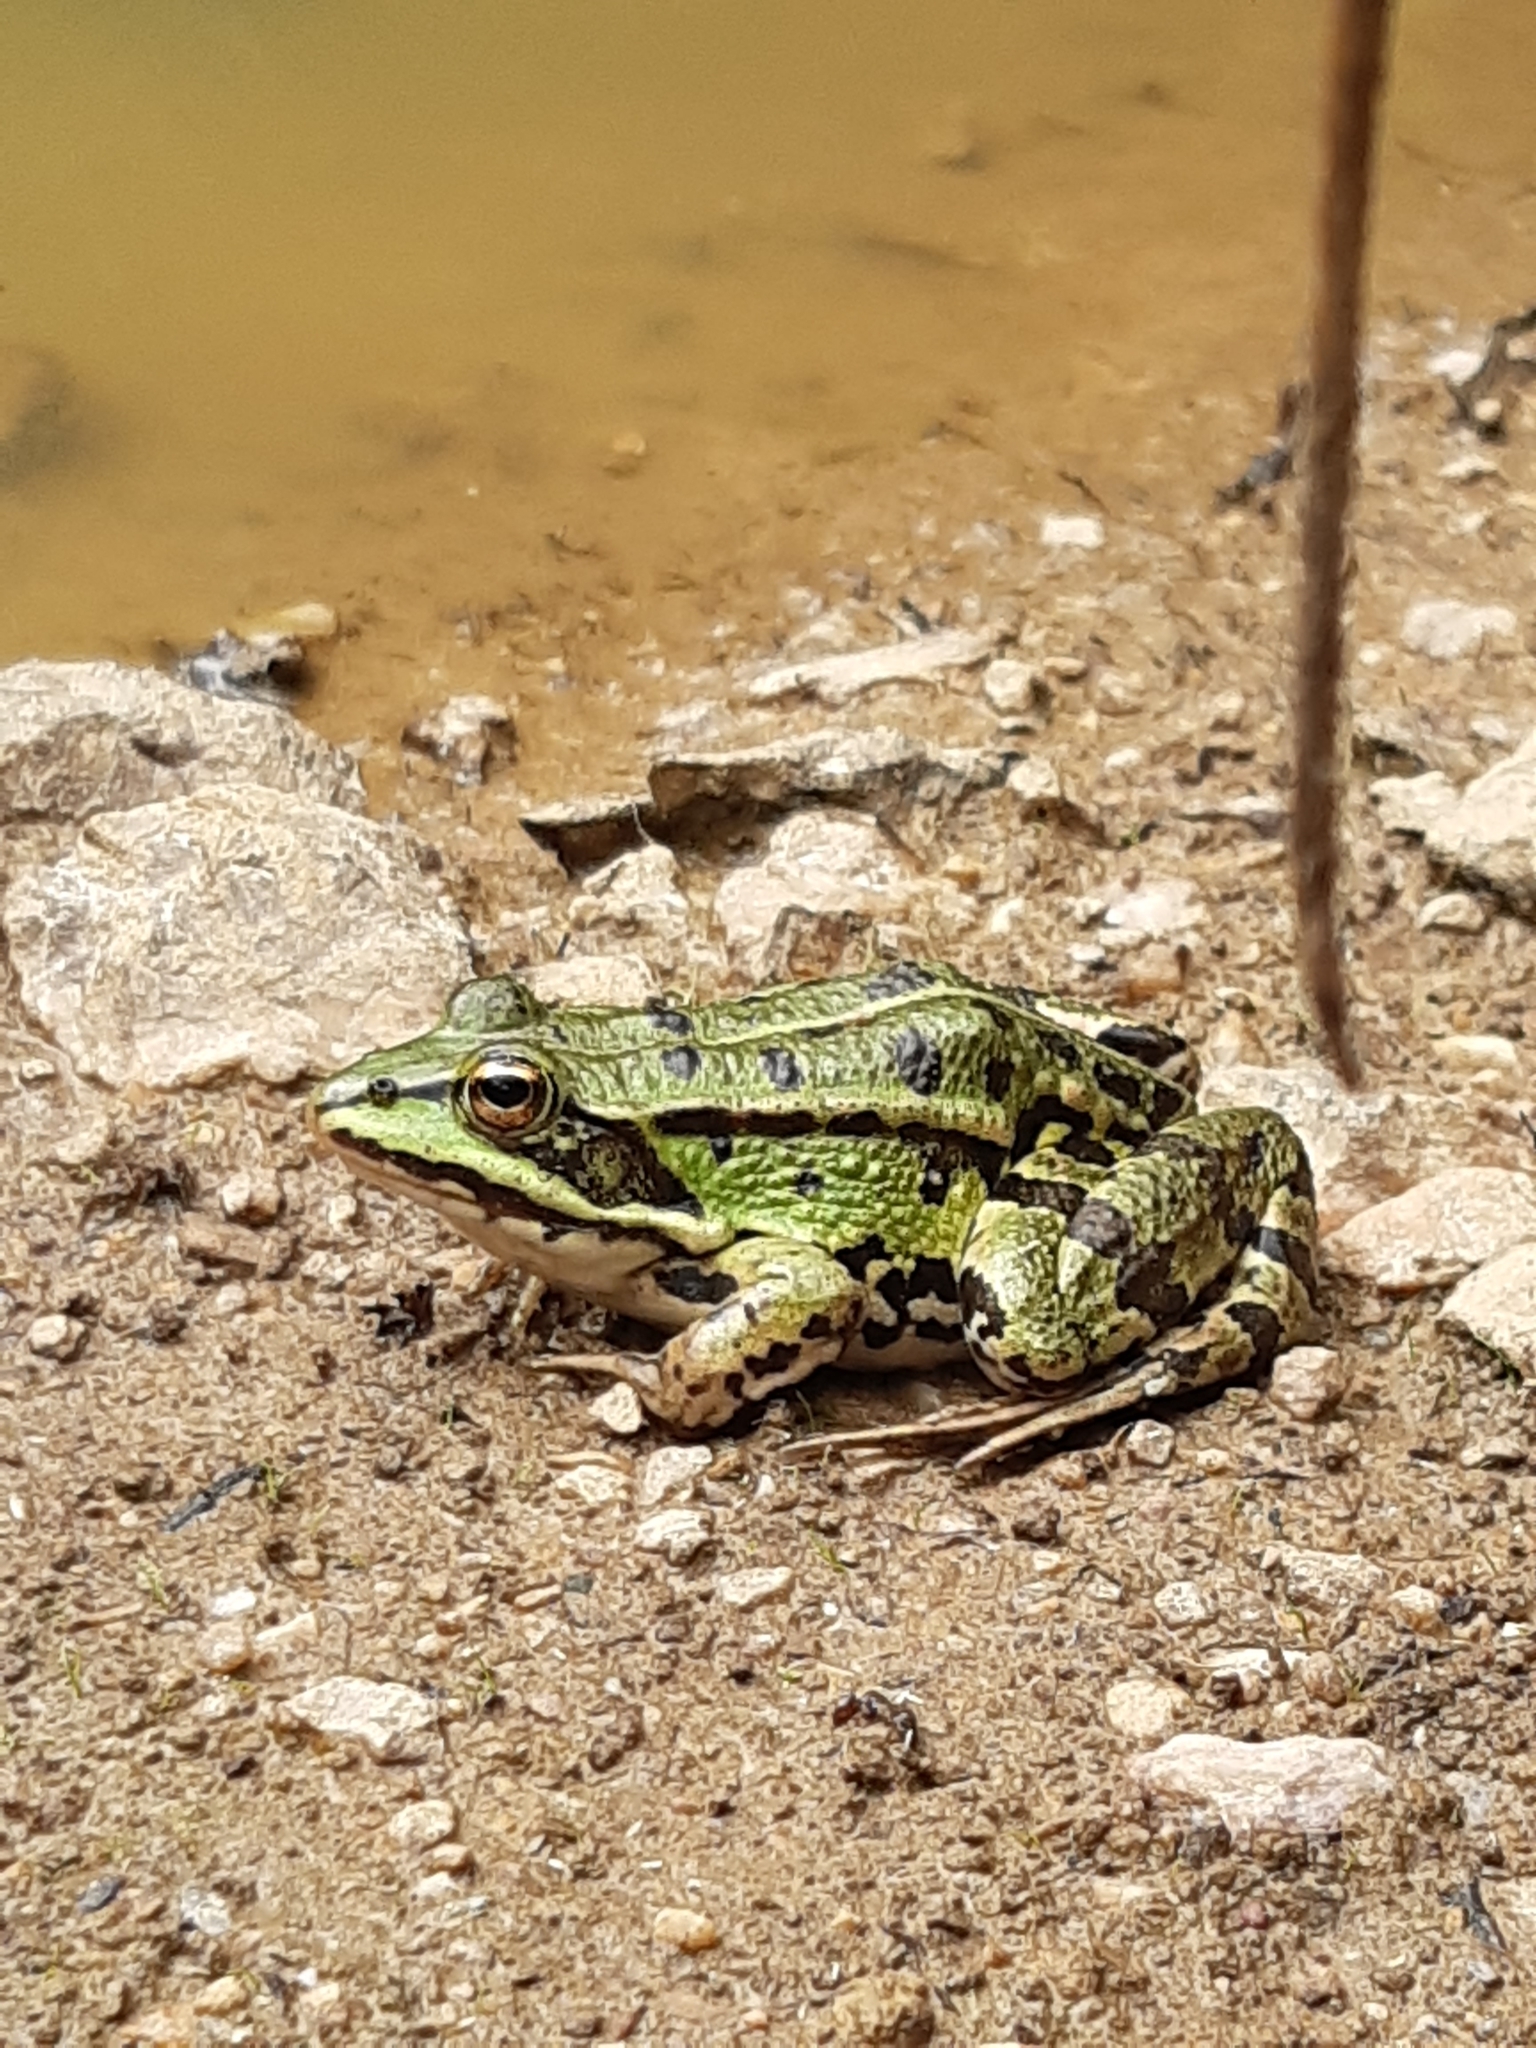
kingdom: Animalia
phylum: Chordata
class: Amphibia
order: Anura
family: Ranidae
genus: Pelophylax
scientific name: Pelophylax
